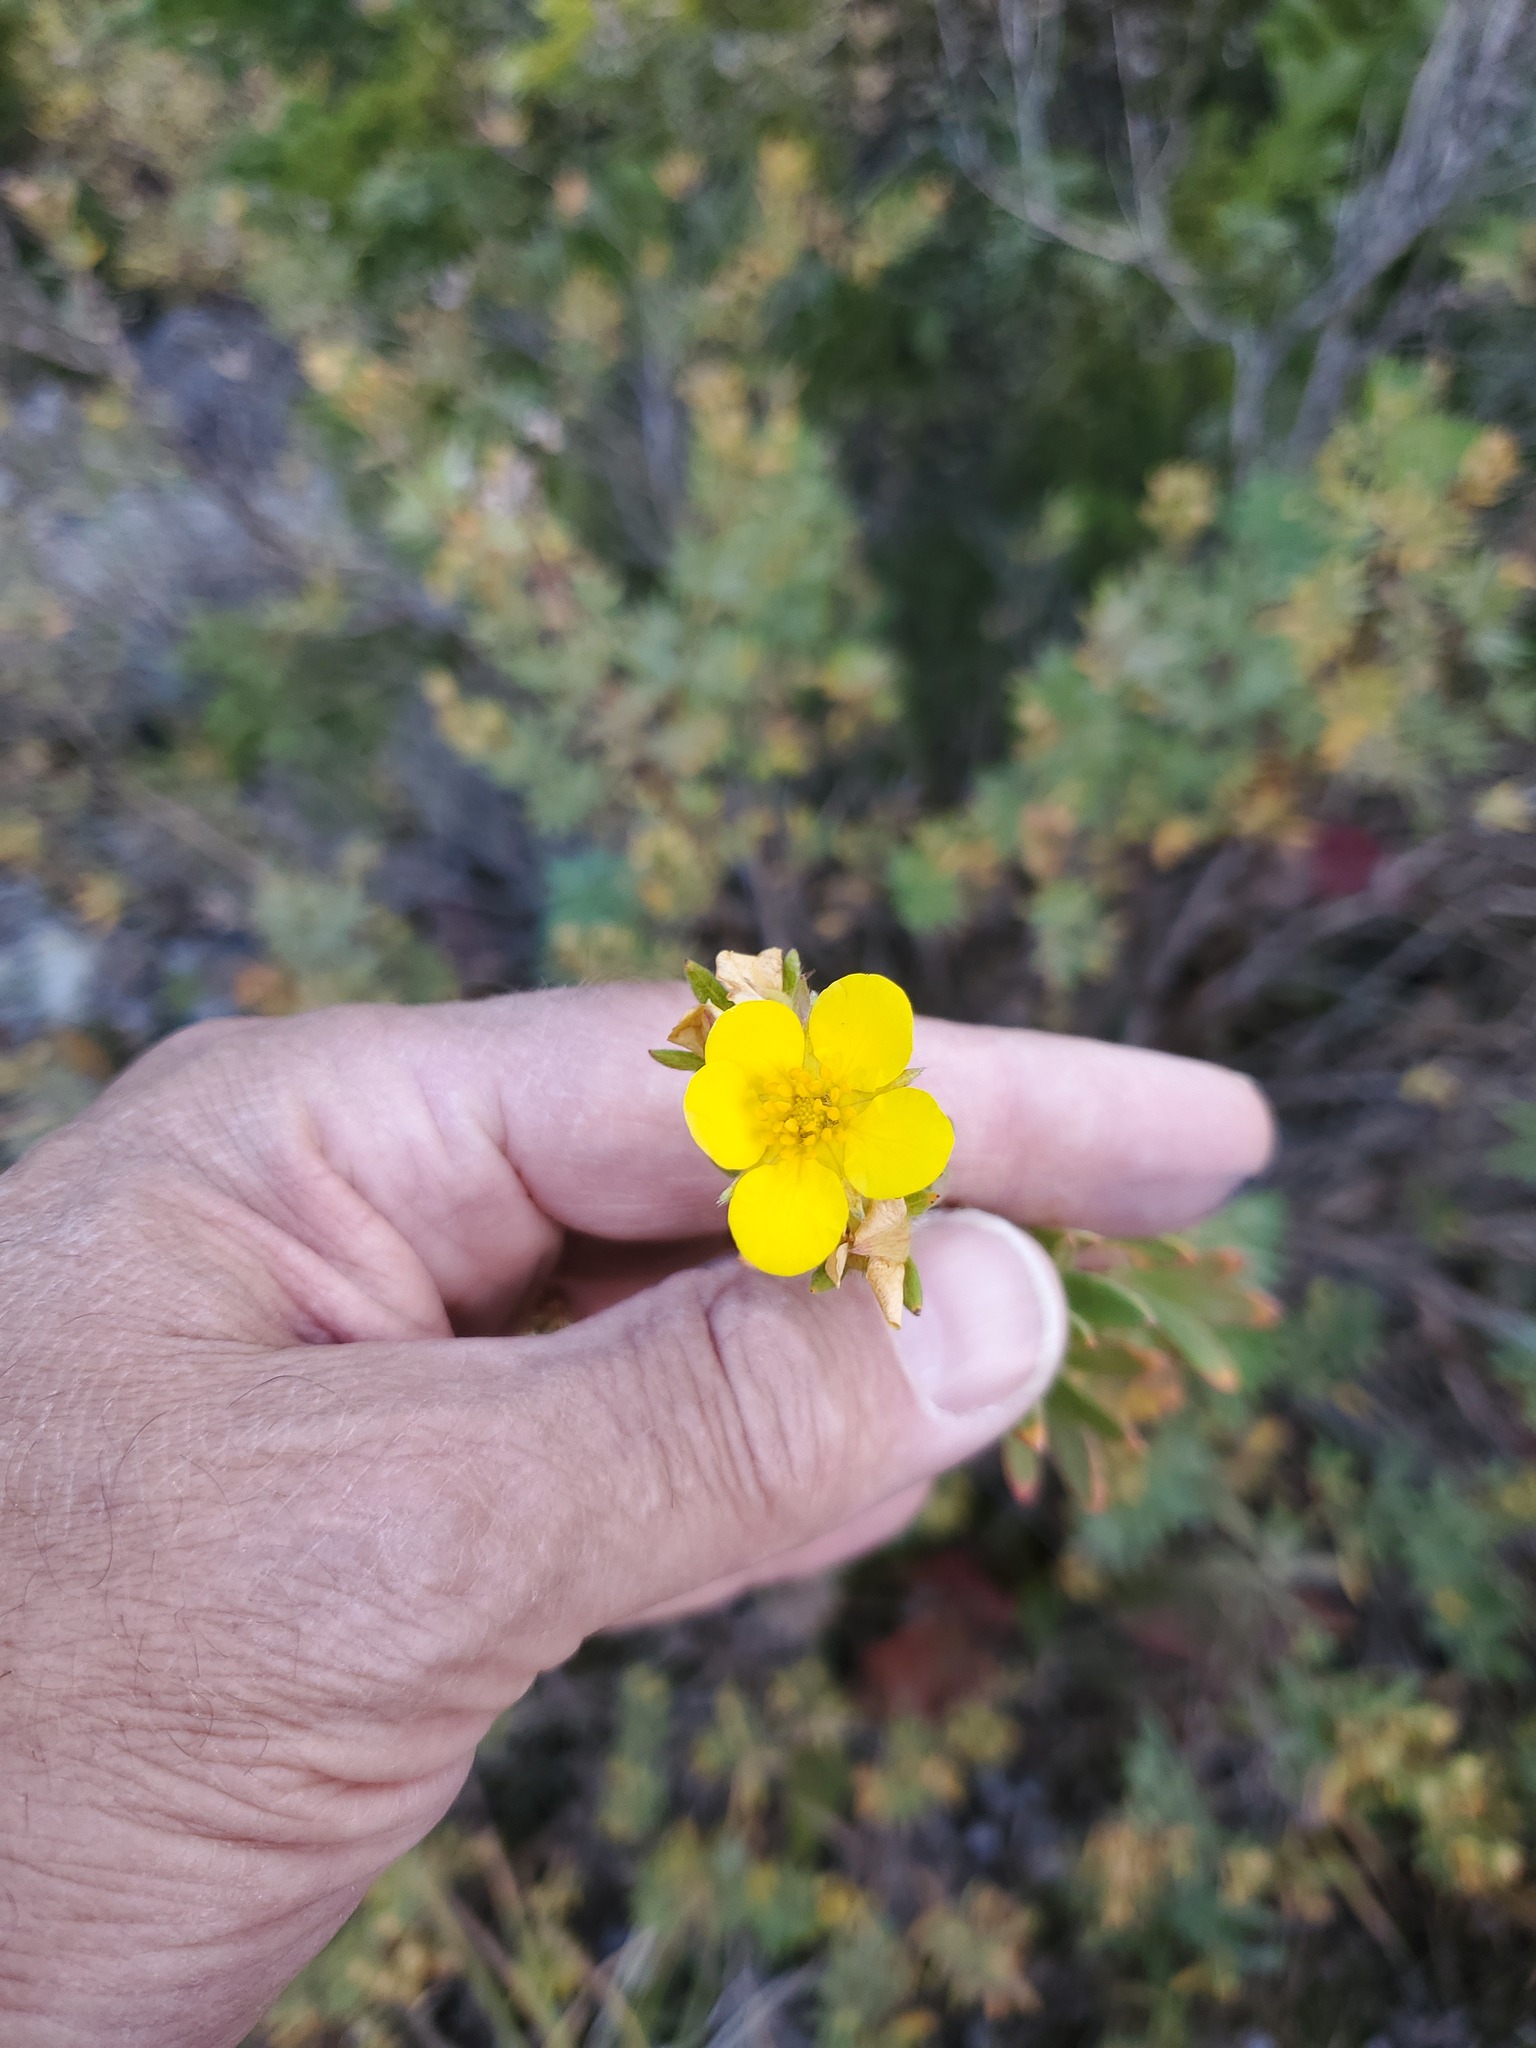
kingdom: Plantae
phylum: Tracheophyta
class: Magnoliopsida
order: Rosales
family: Rosaceae
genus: Dasiphora
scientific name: Dasiphora fruticosa
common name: Shrubby cinquefoil
